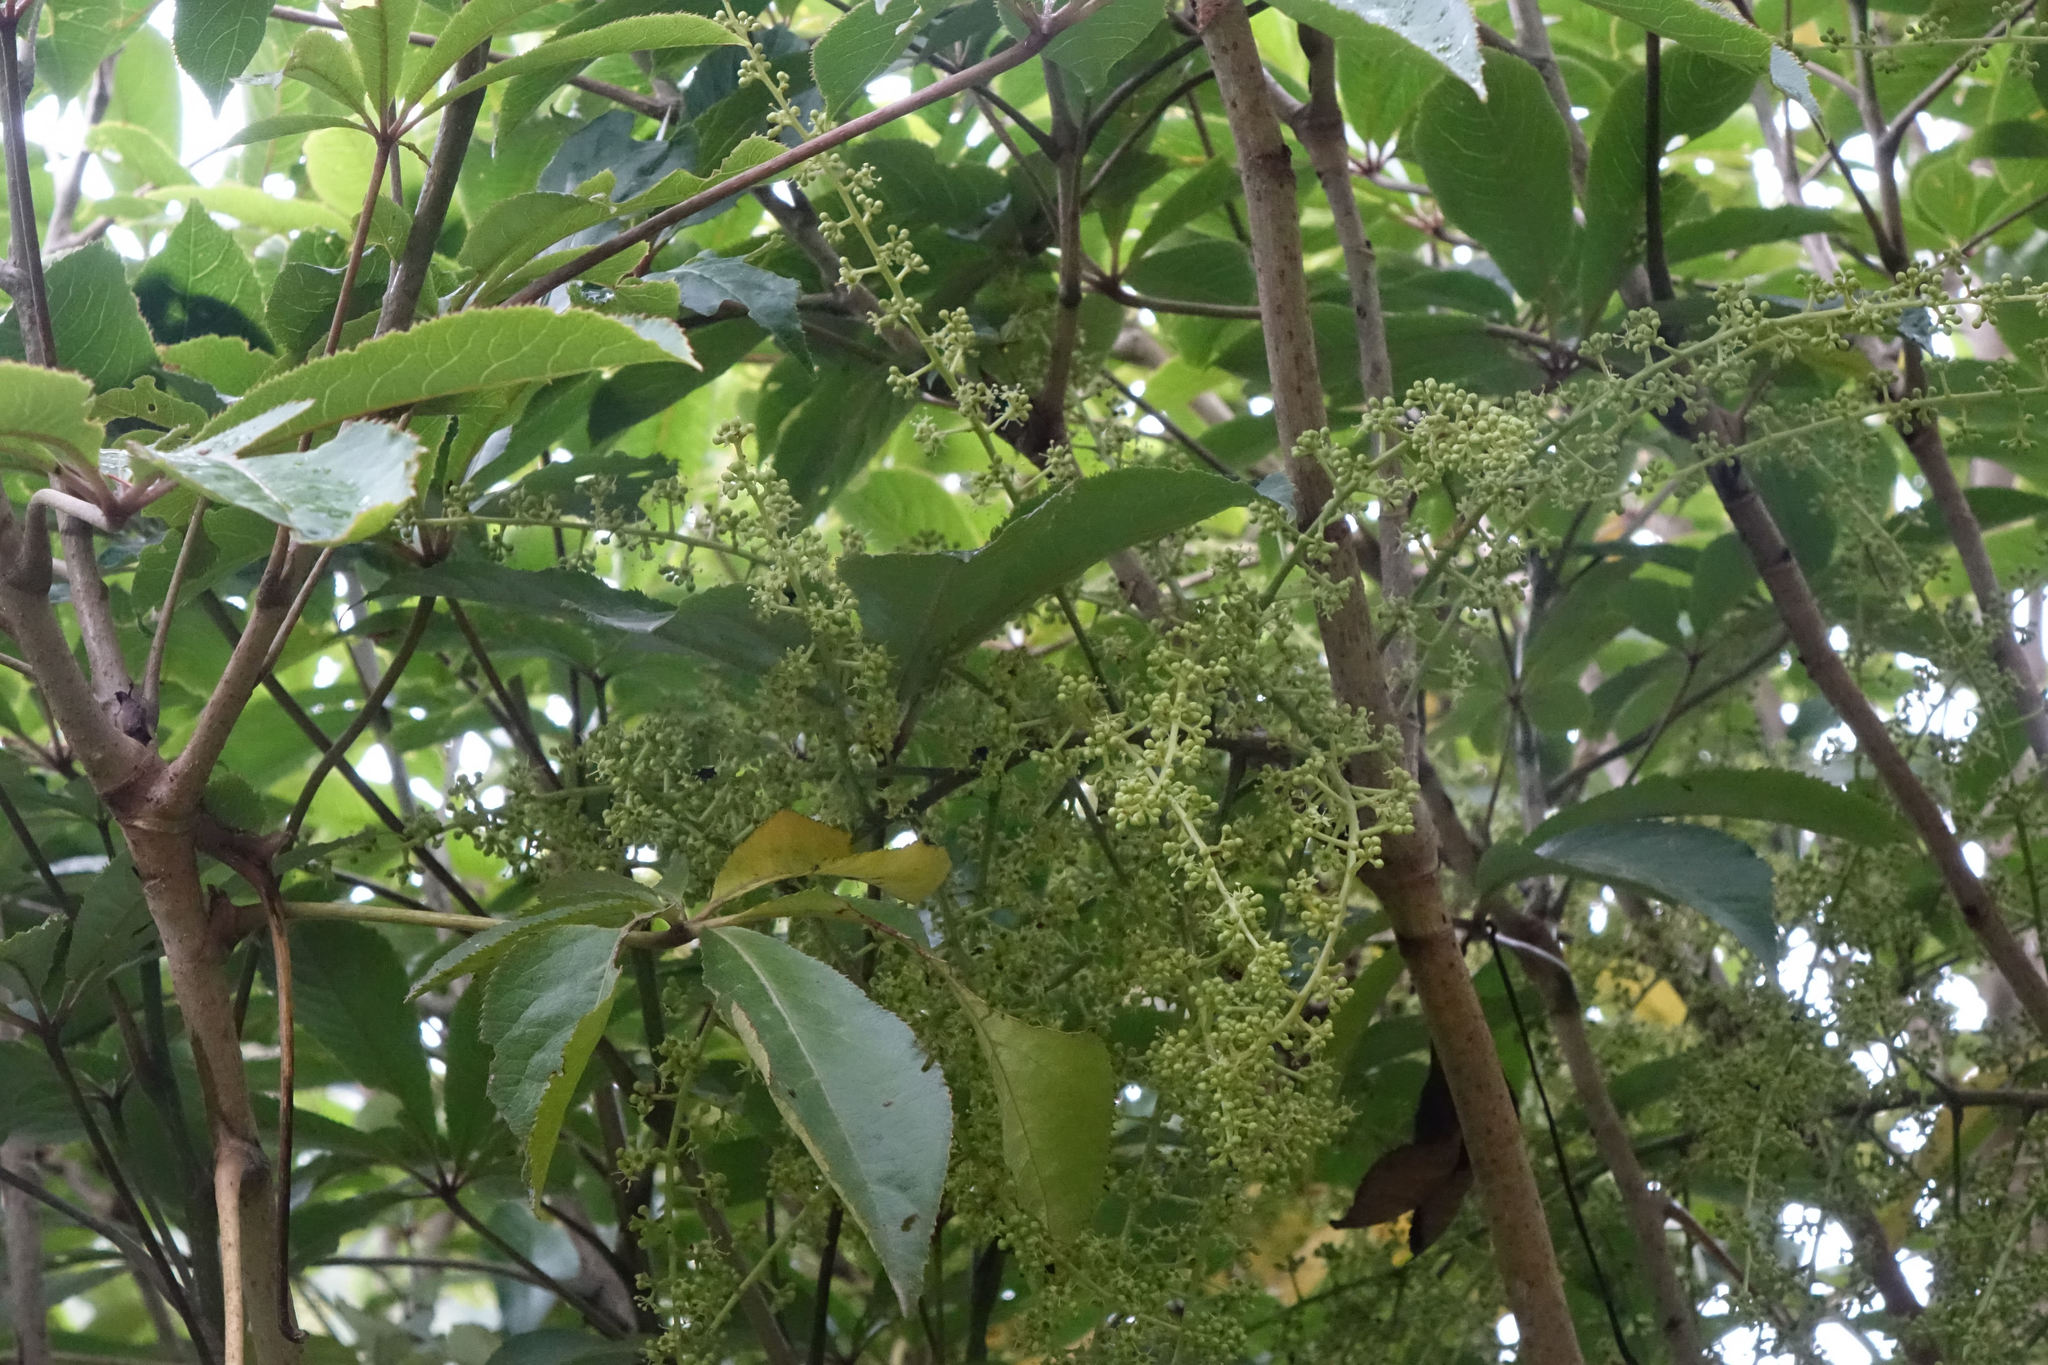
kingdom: Plantae
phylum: Tracheophyta
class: Magnoliopsida
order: Apiales
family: Araliaceae
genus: Schefflera
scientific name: Schefflera digitata
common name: Pate
